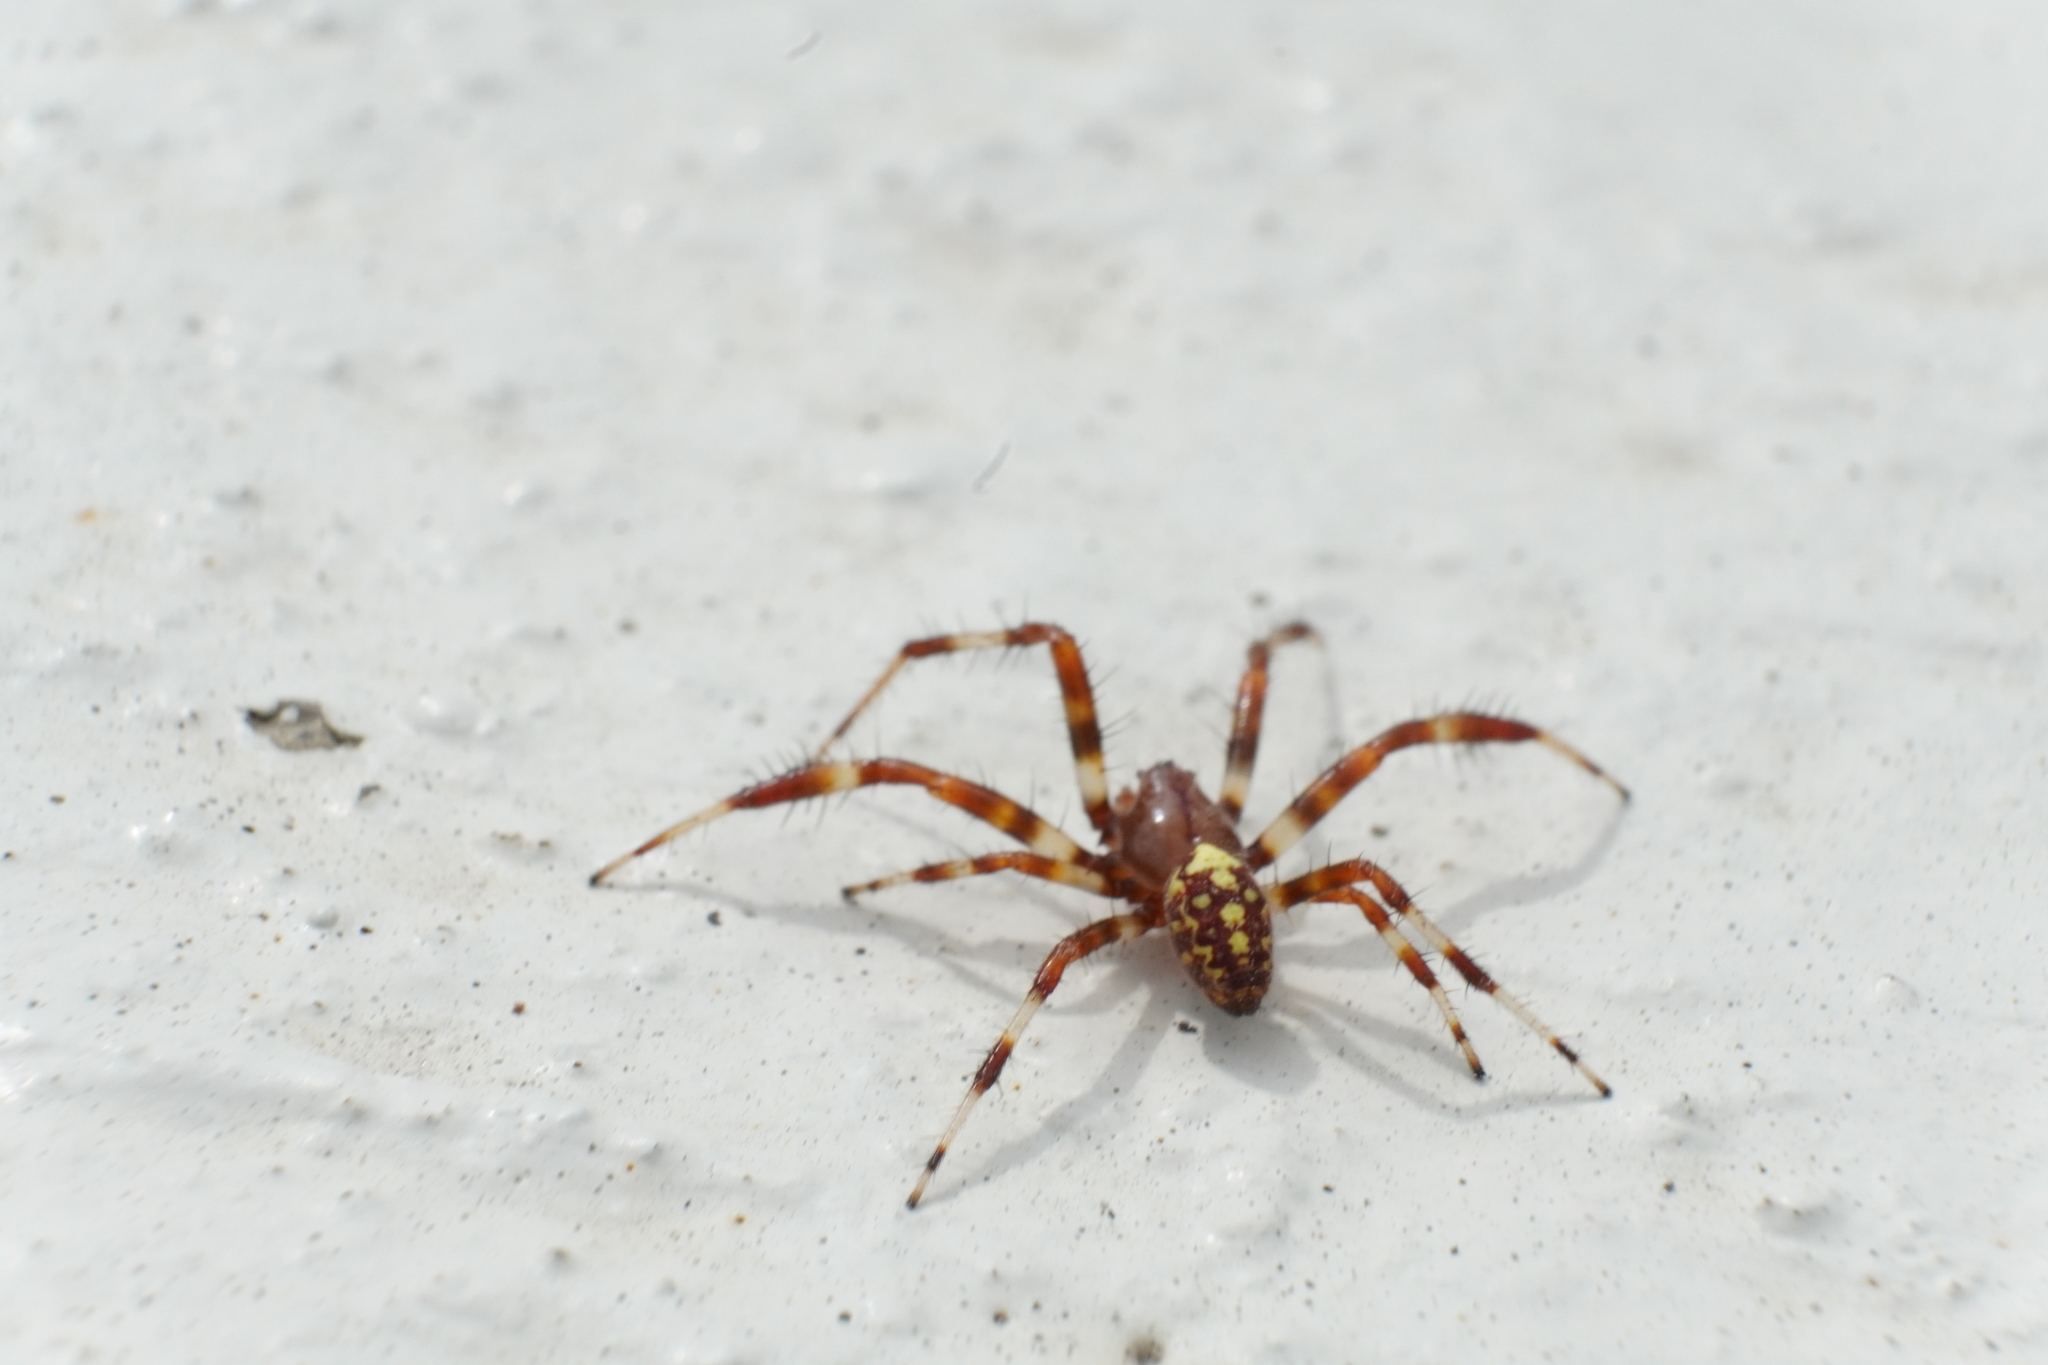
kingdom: Animalia
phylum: Arthropoda
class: Arachnida
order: Araneae
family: Araneidae
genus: Araneus
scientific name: Araneus marmoreus
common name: Marbled orbweaver
